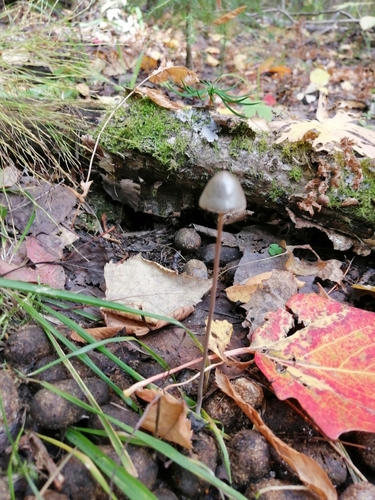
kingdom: Fungi
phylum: Basidiomycota
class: Agaricomycetes
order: Agaricales
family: Bolbitiaceae
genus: Panaeolus
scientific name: Panaeolus
